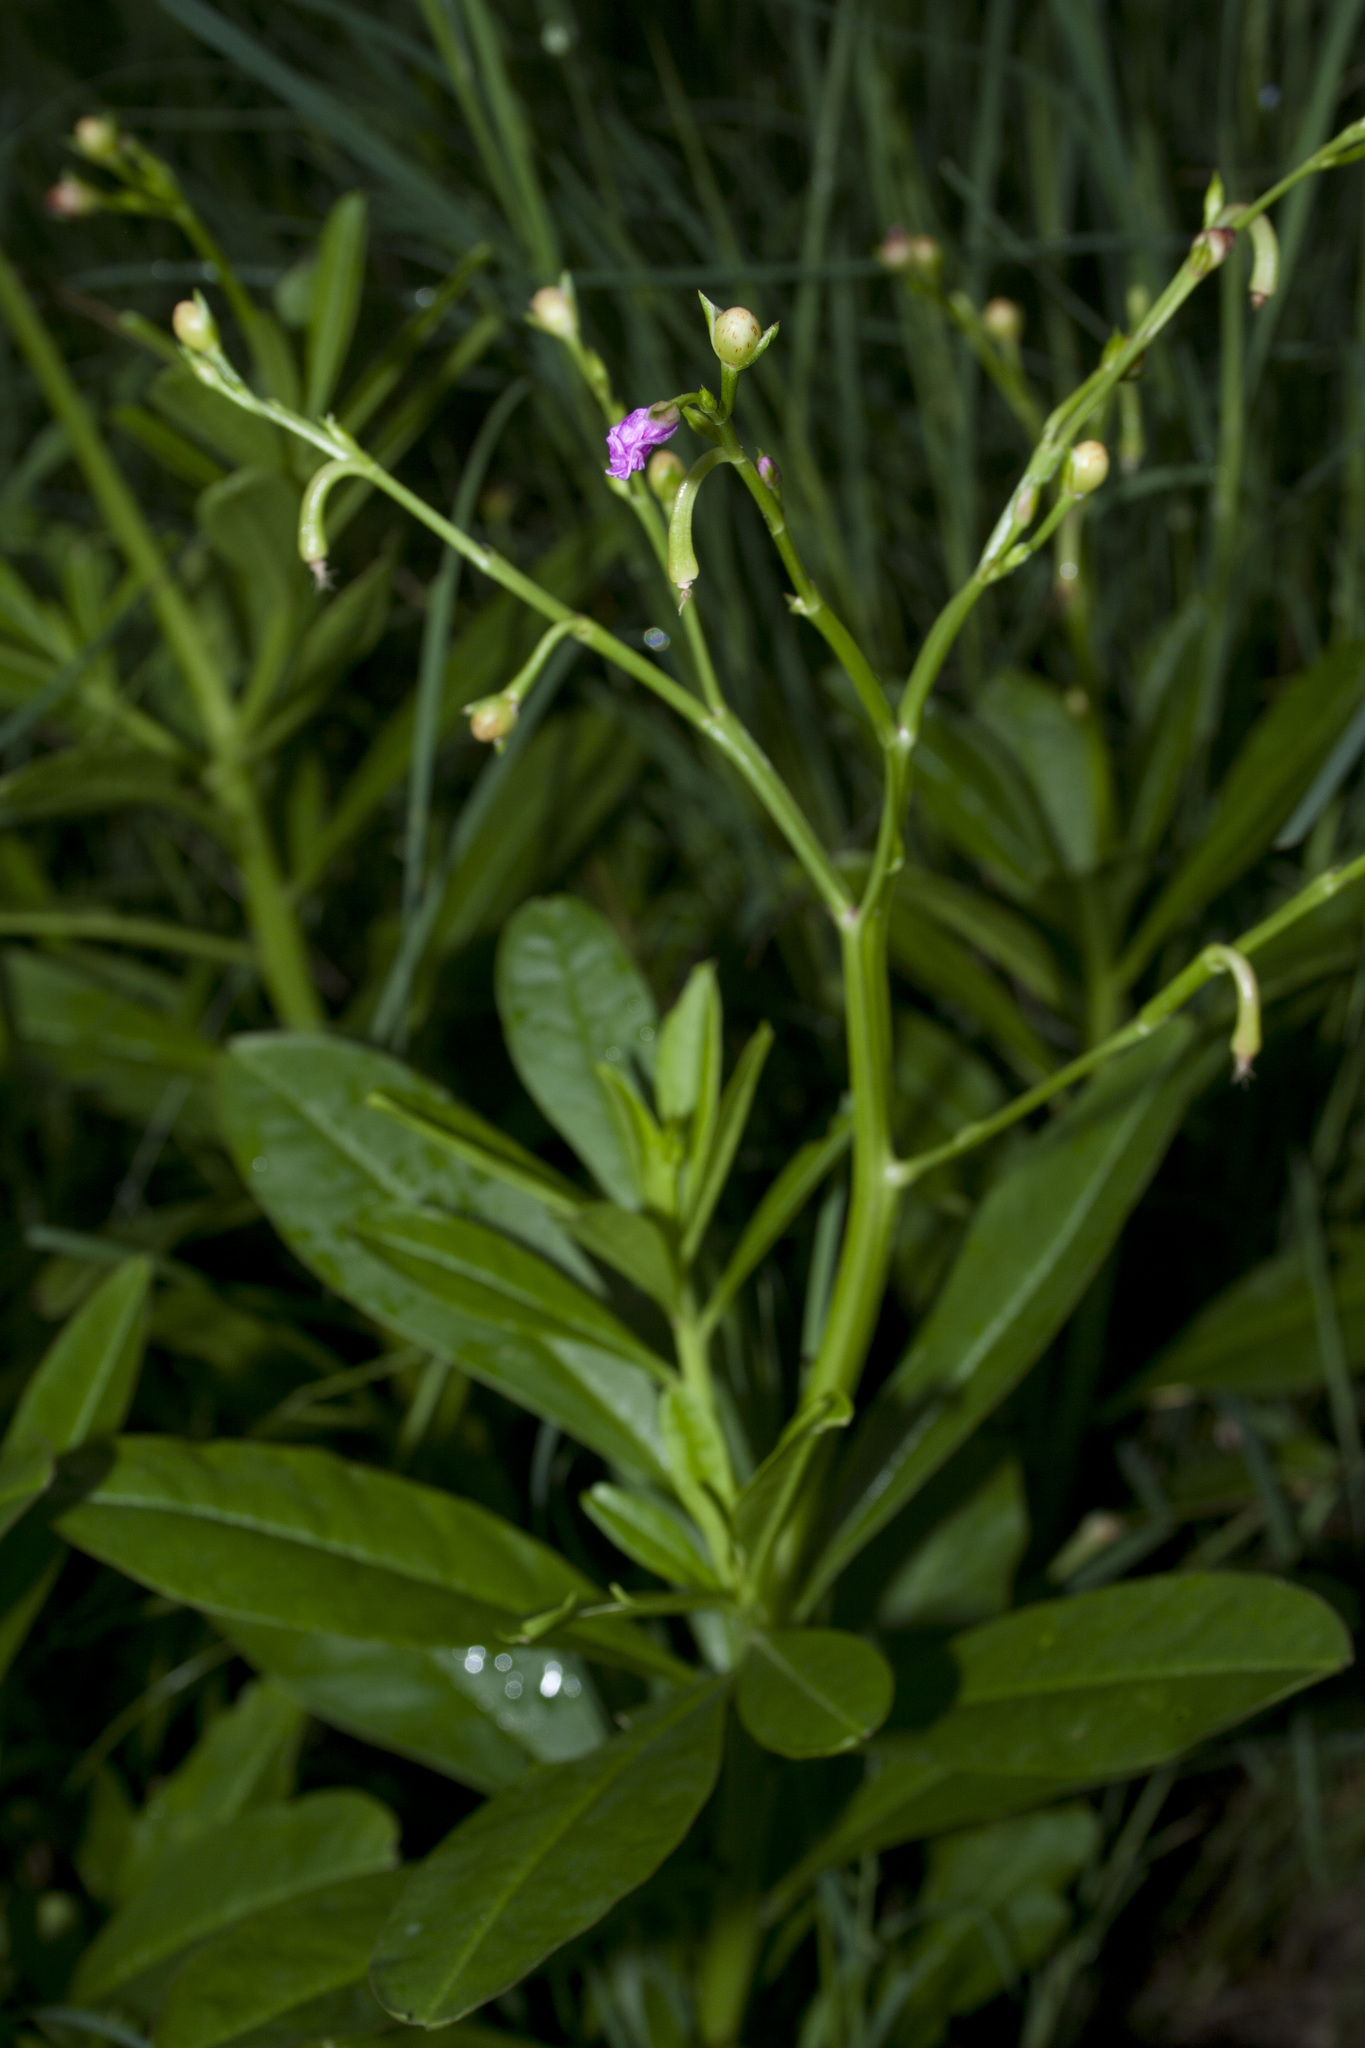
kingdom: Plantae
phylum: Tracheophyta
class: Magnoliopsida
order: Caryophyllales
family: Talinaceae
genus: Talinum
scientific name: Talinum fruticosum
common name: Verdolaga-francesa
